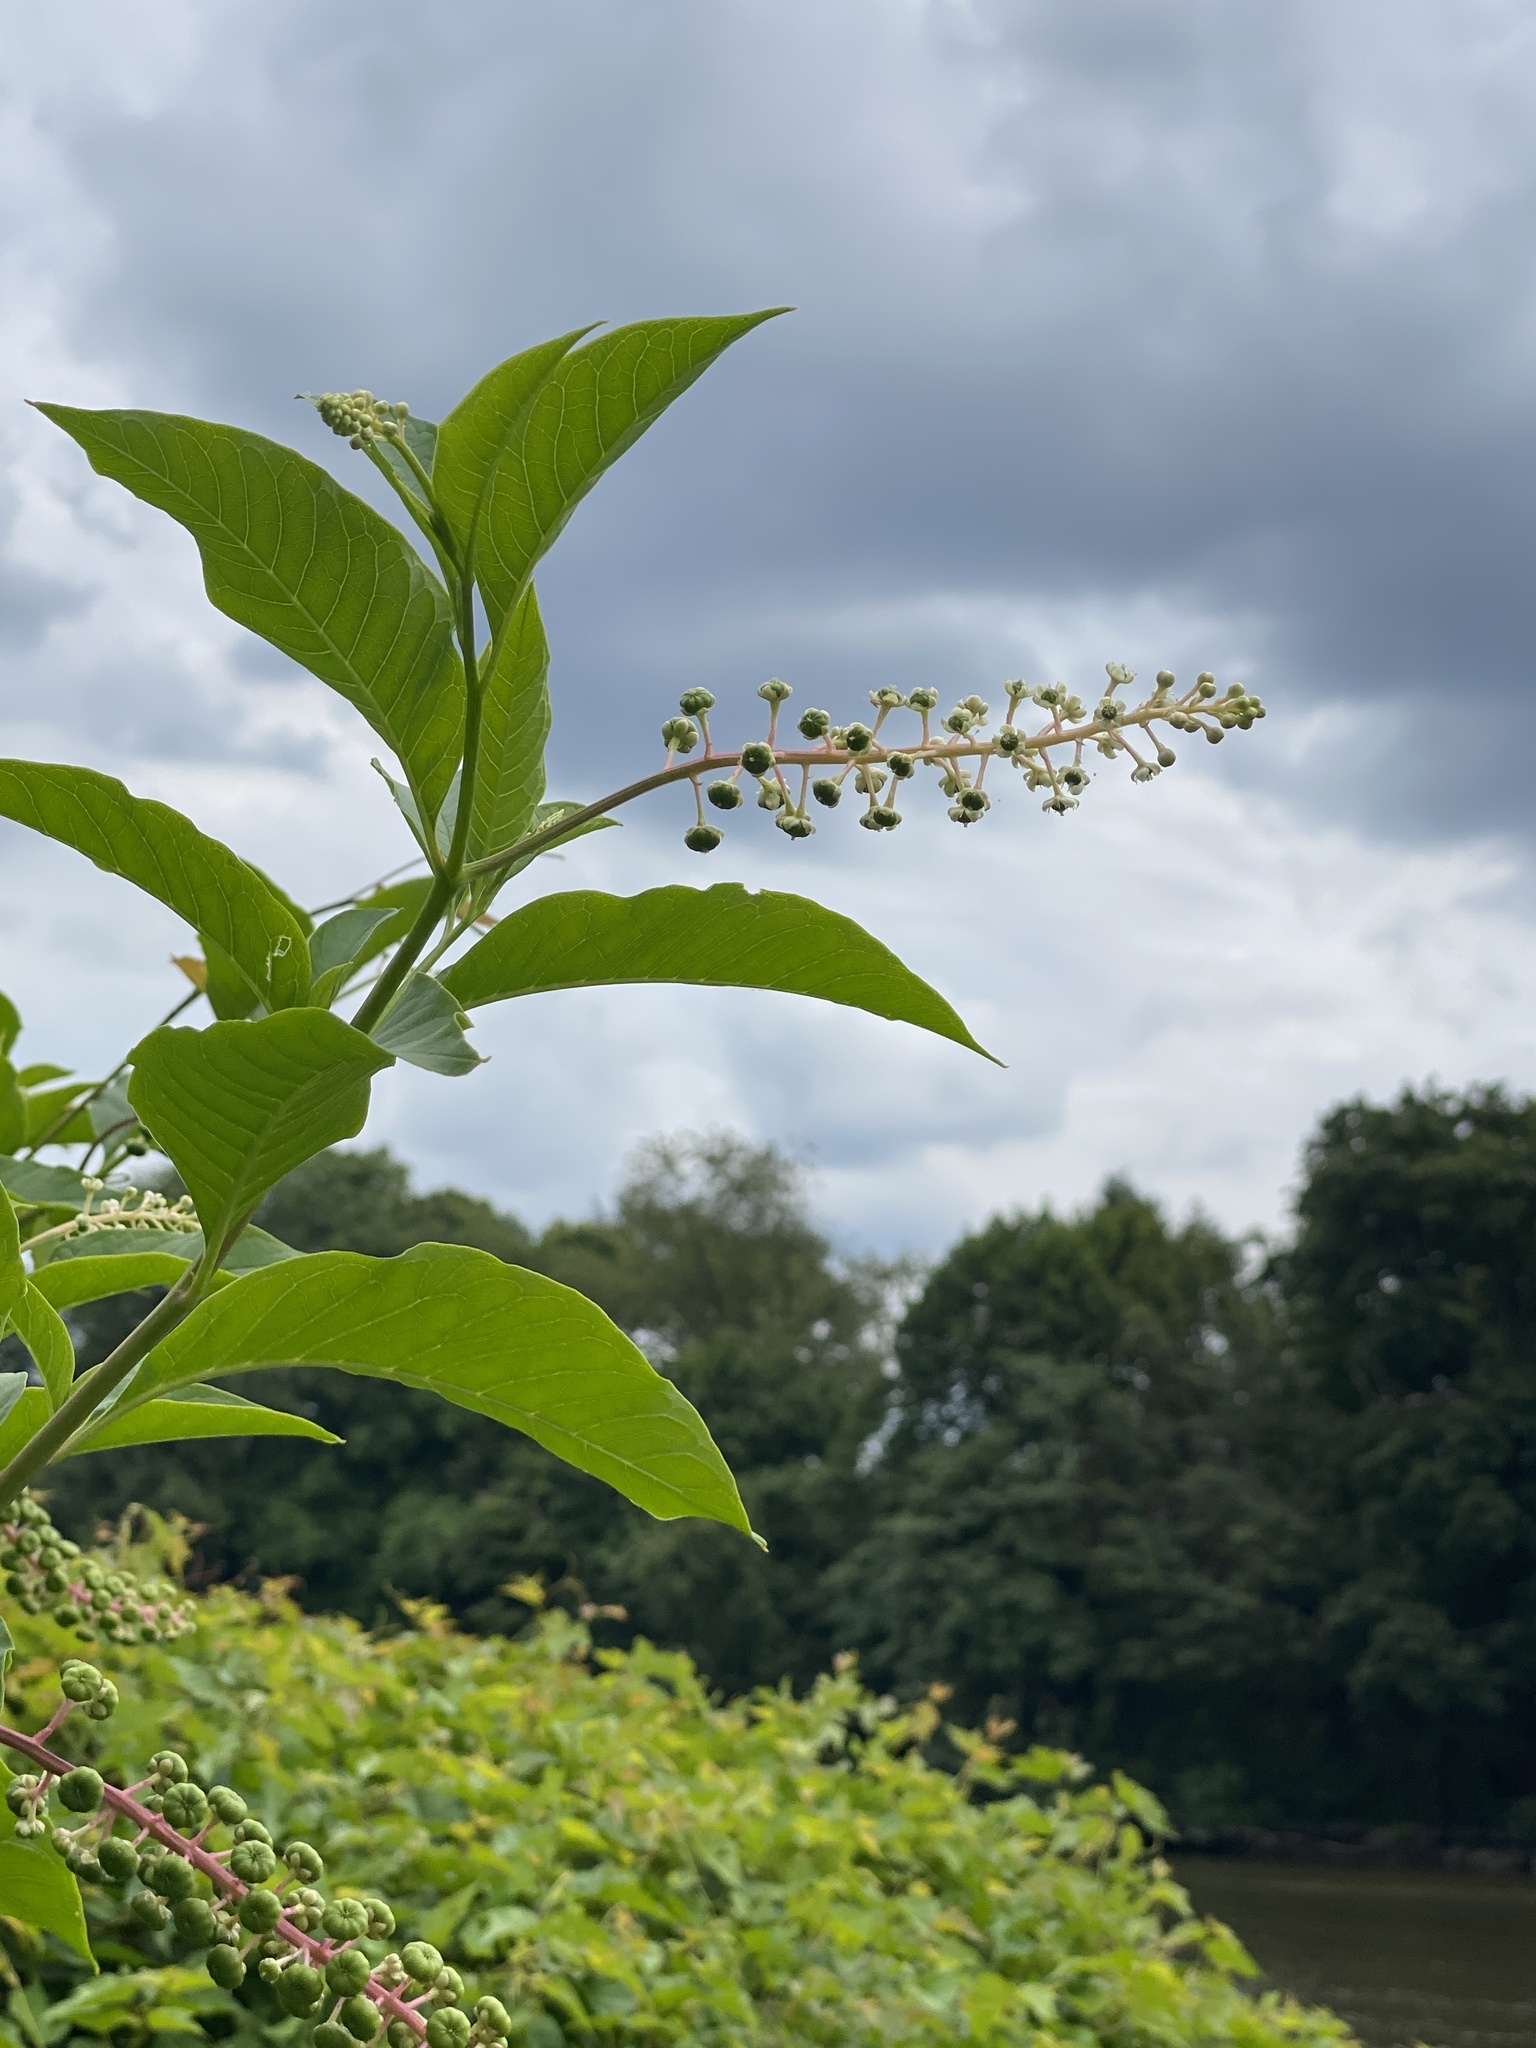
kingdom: Plantae
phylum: Tracheophyta
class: Magnoliopsida
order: Caryophyllales
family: Phytolaccaceae
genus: Phytolacca
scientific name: Phytolacca americana
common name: American pokeweed
